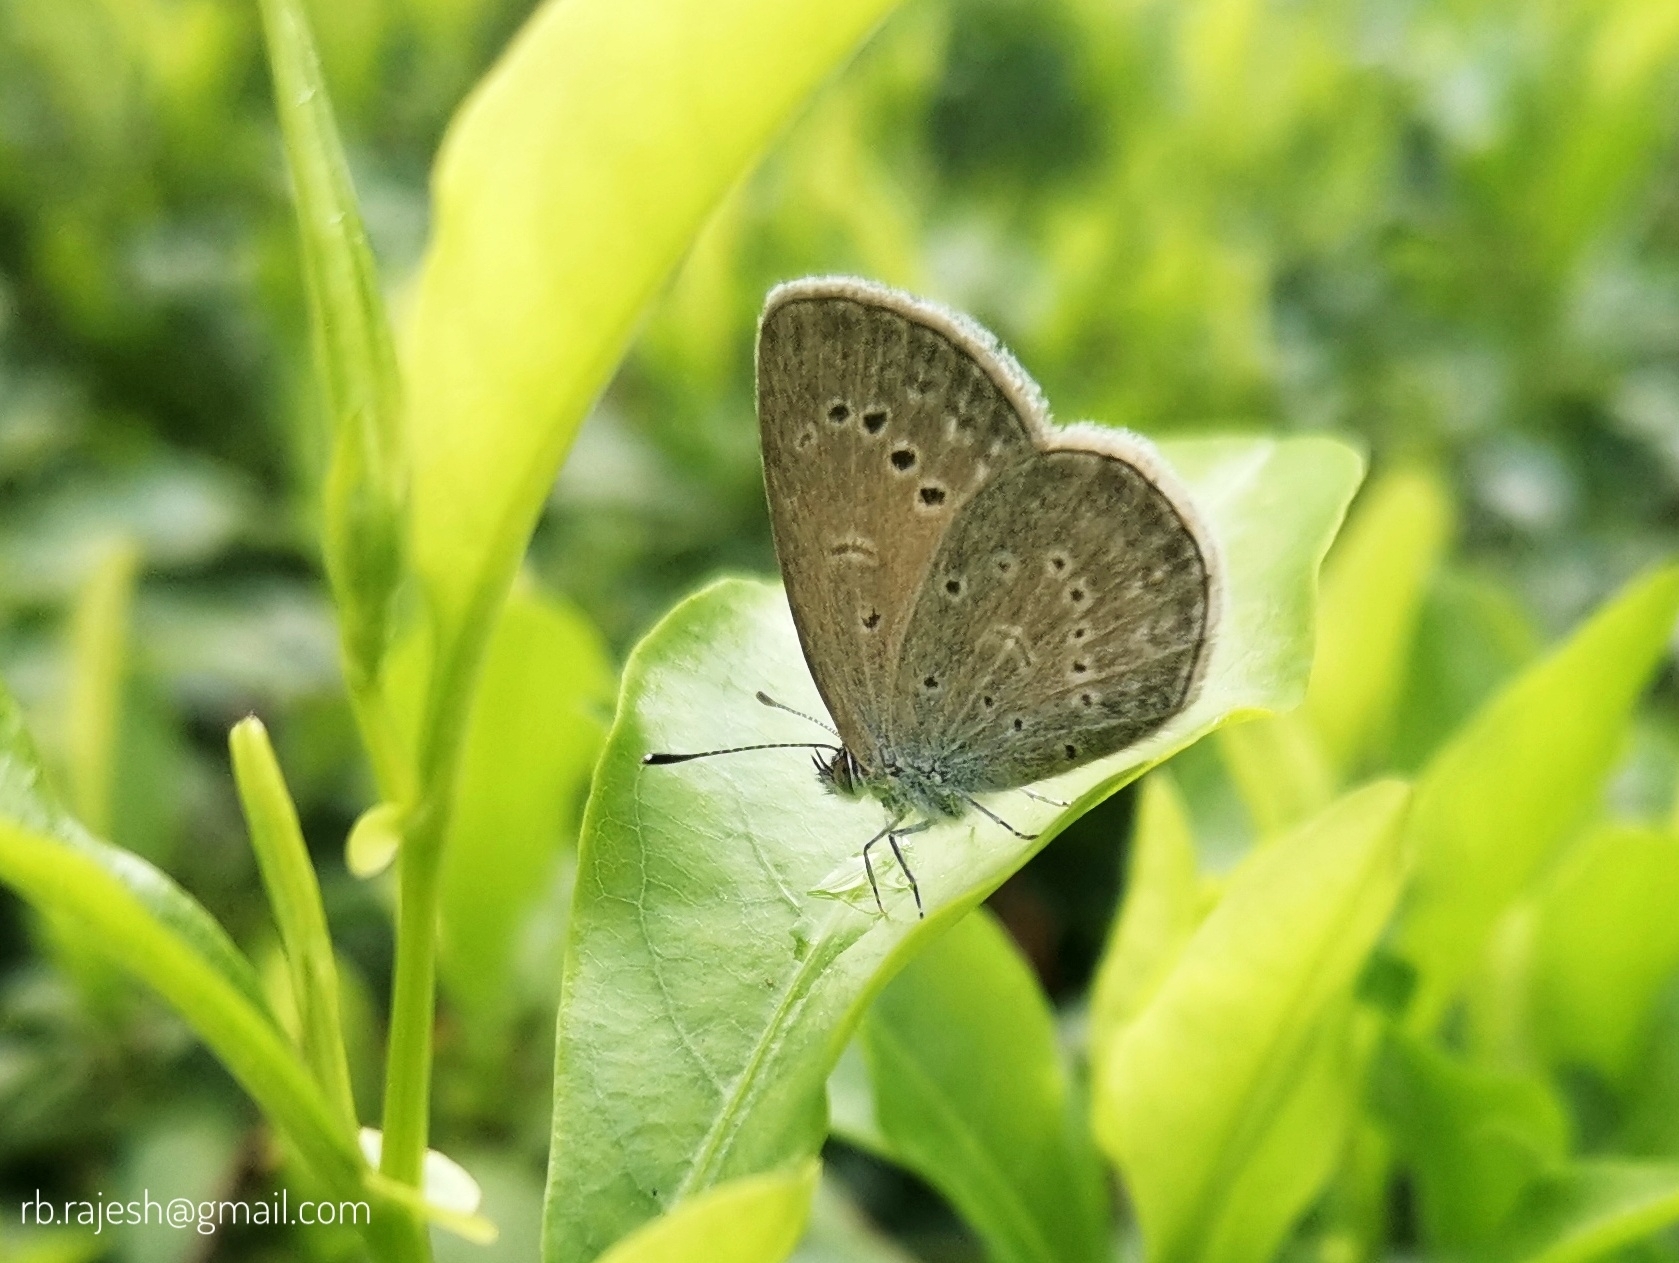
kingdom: Animalia
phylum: Arthropoda
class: Insecta
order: Lepidoptera
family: Lycaenidae
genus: Pseudozizeeria
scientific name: Pseudozizeeria maha
